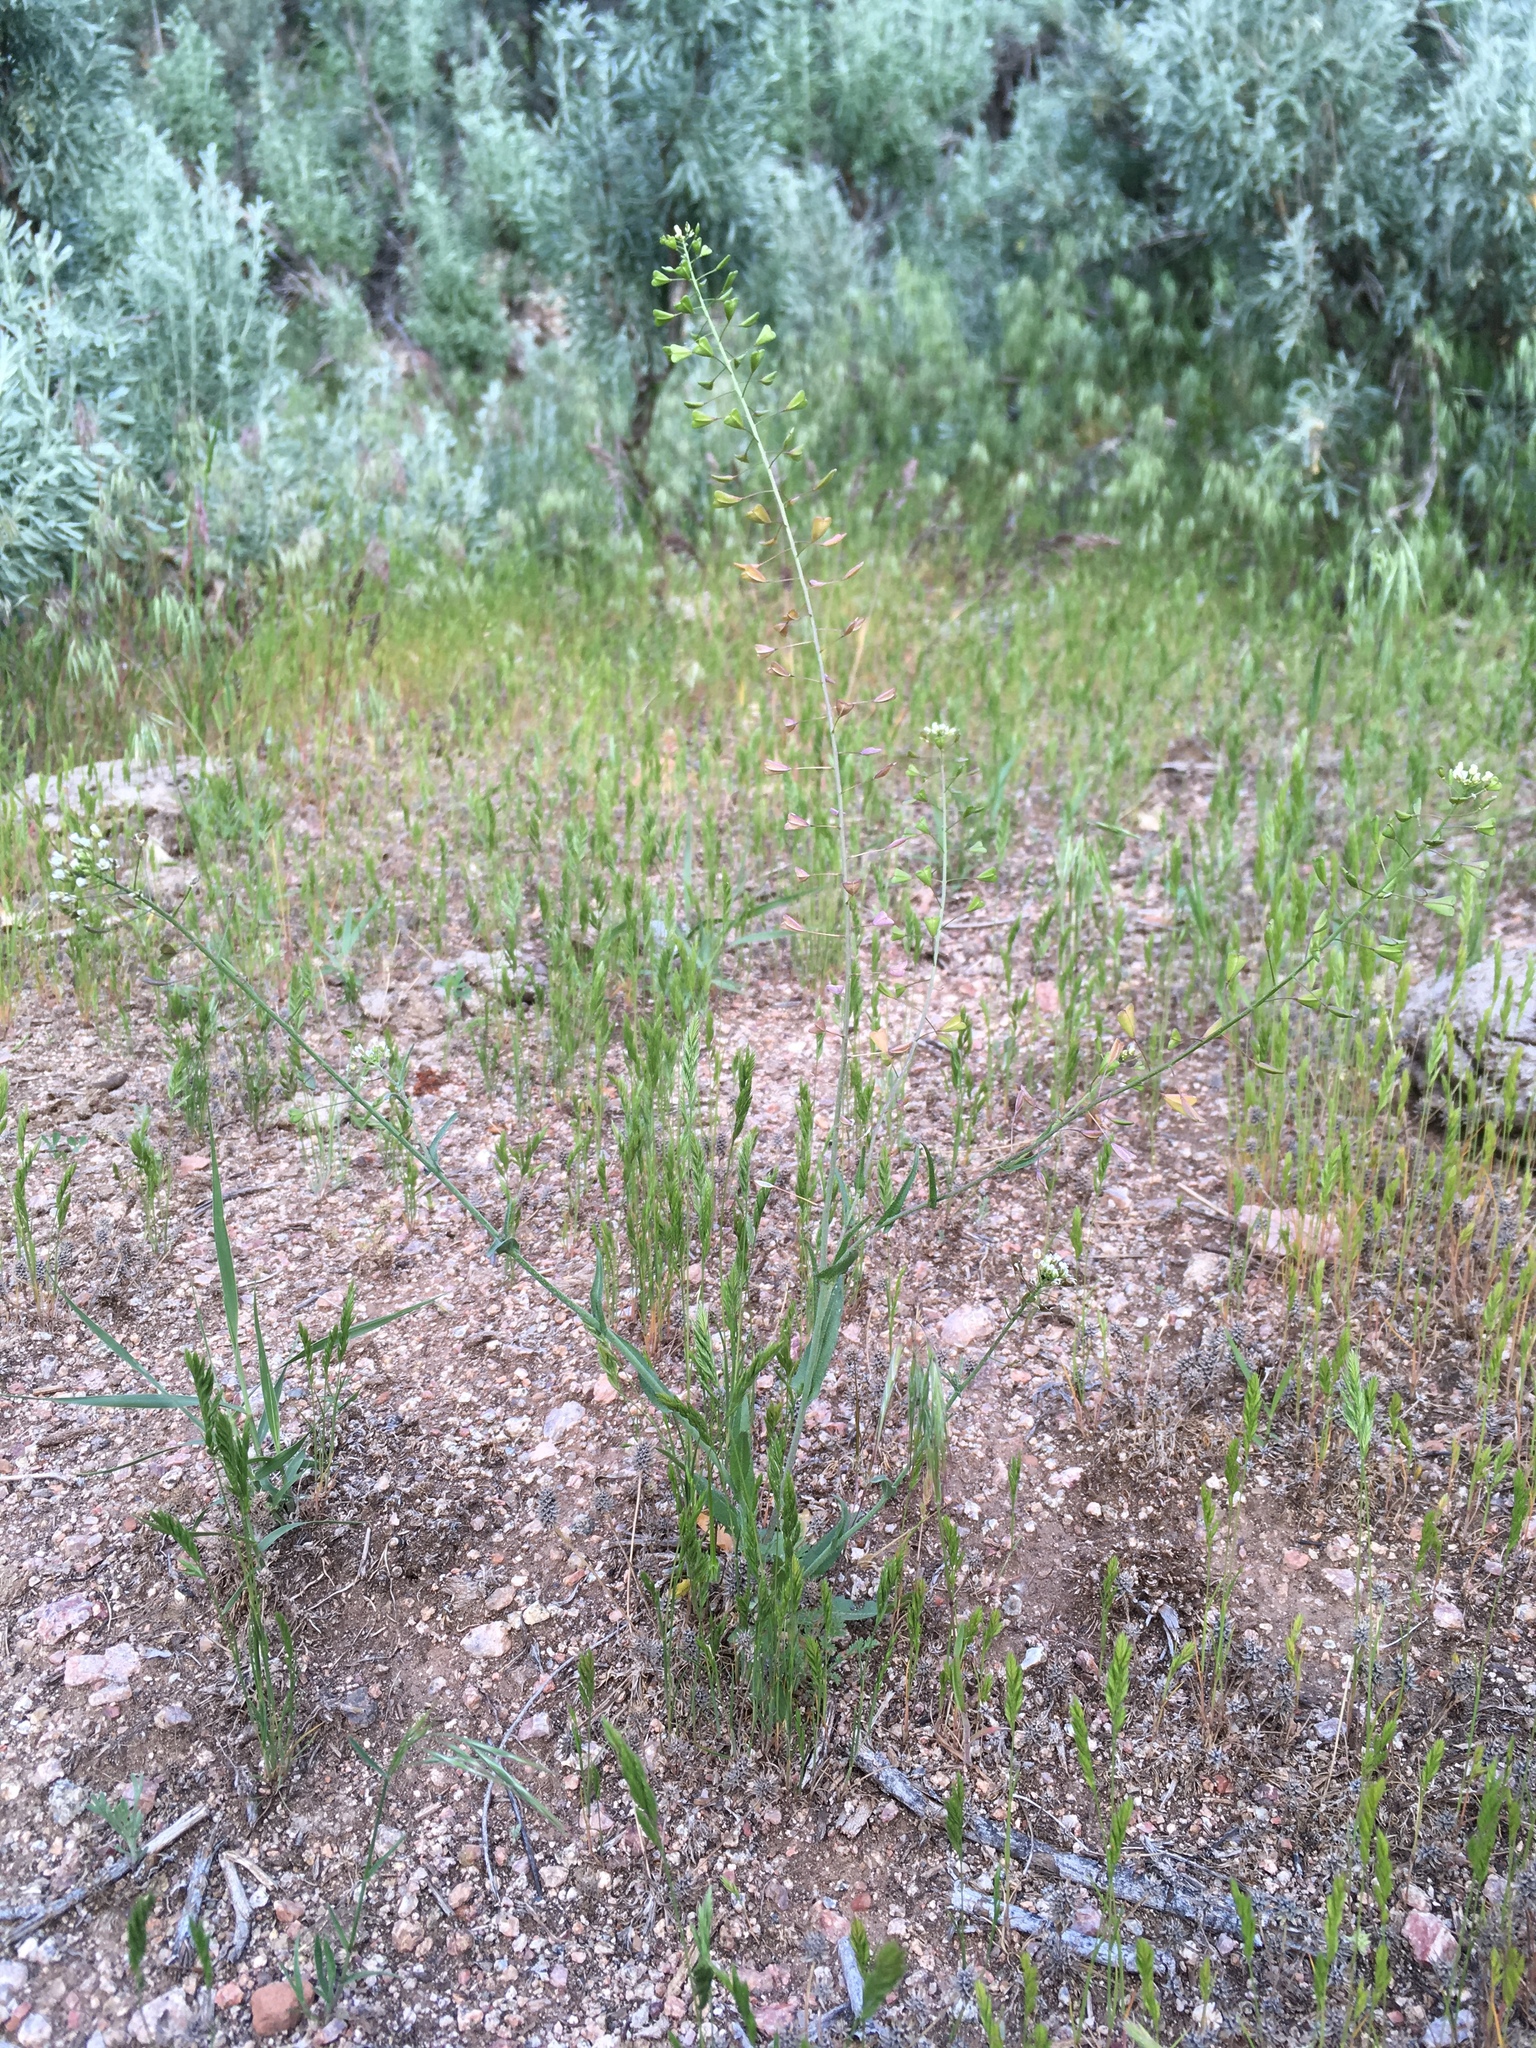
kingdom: Plantae
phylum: Tracheophyta
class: Magnoliopsida
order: Brassicales
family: Brassicaceae
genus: Capsella
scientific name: Capsella bursa-pastoris
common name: Shepherd's purse
